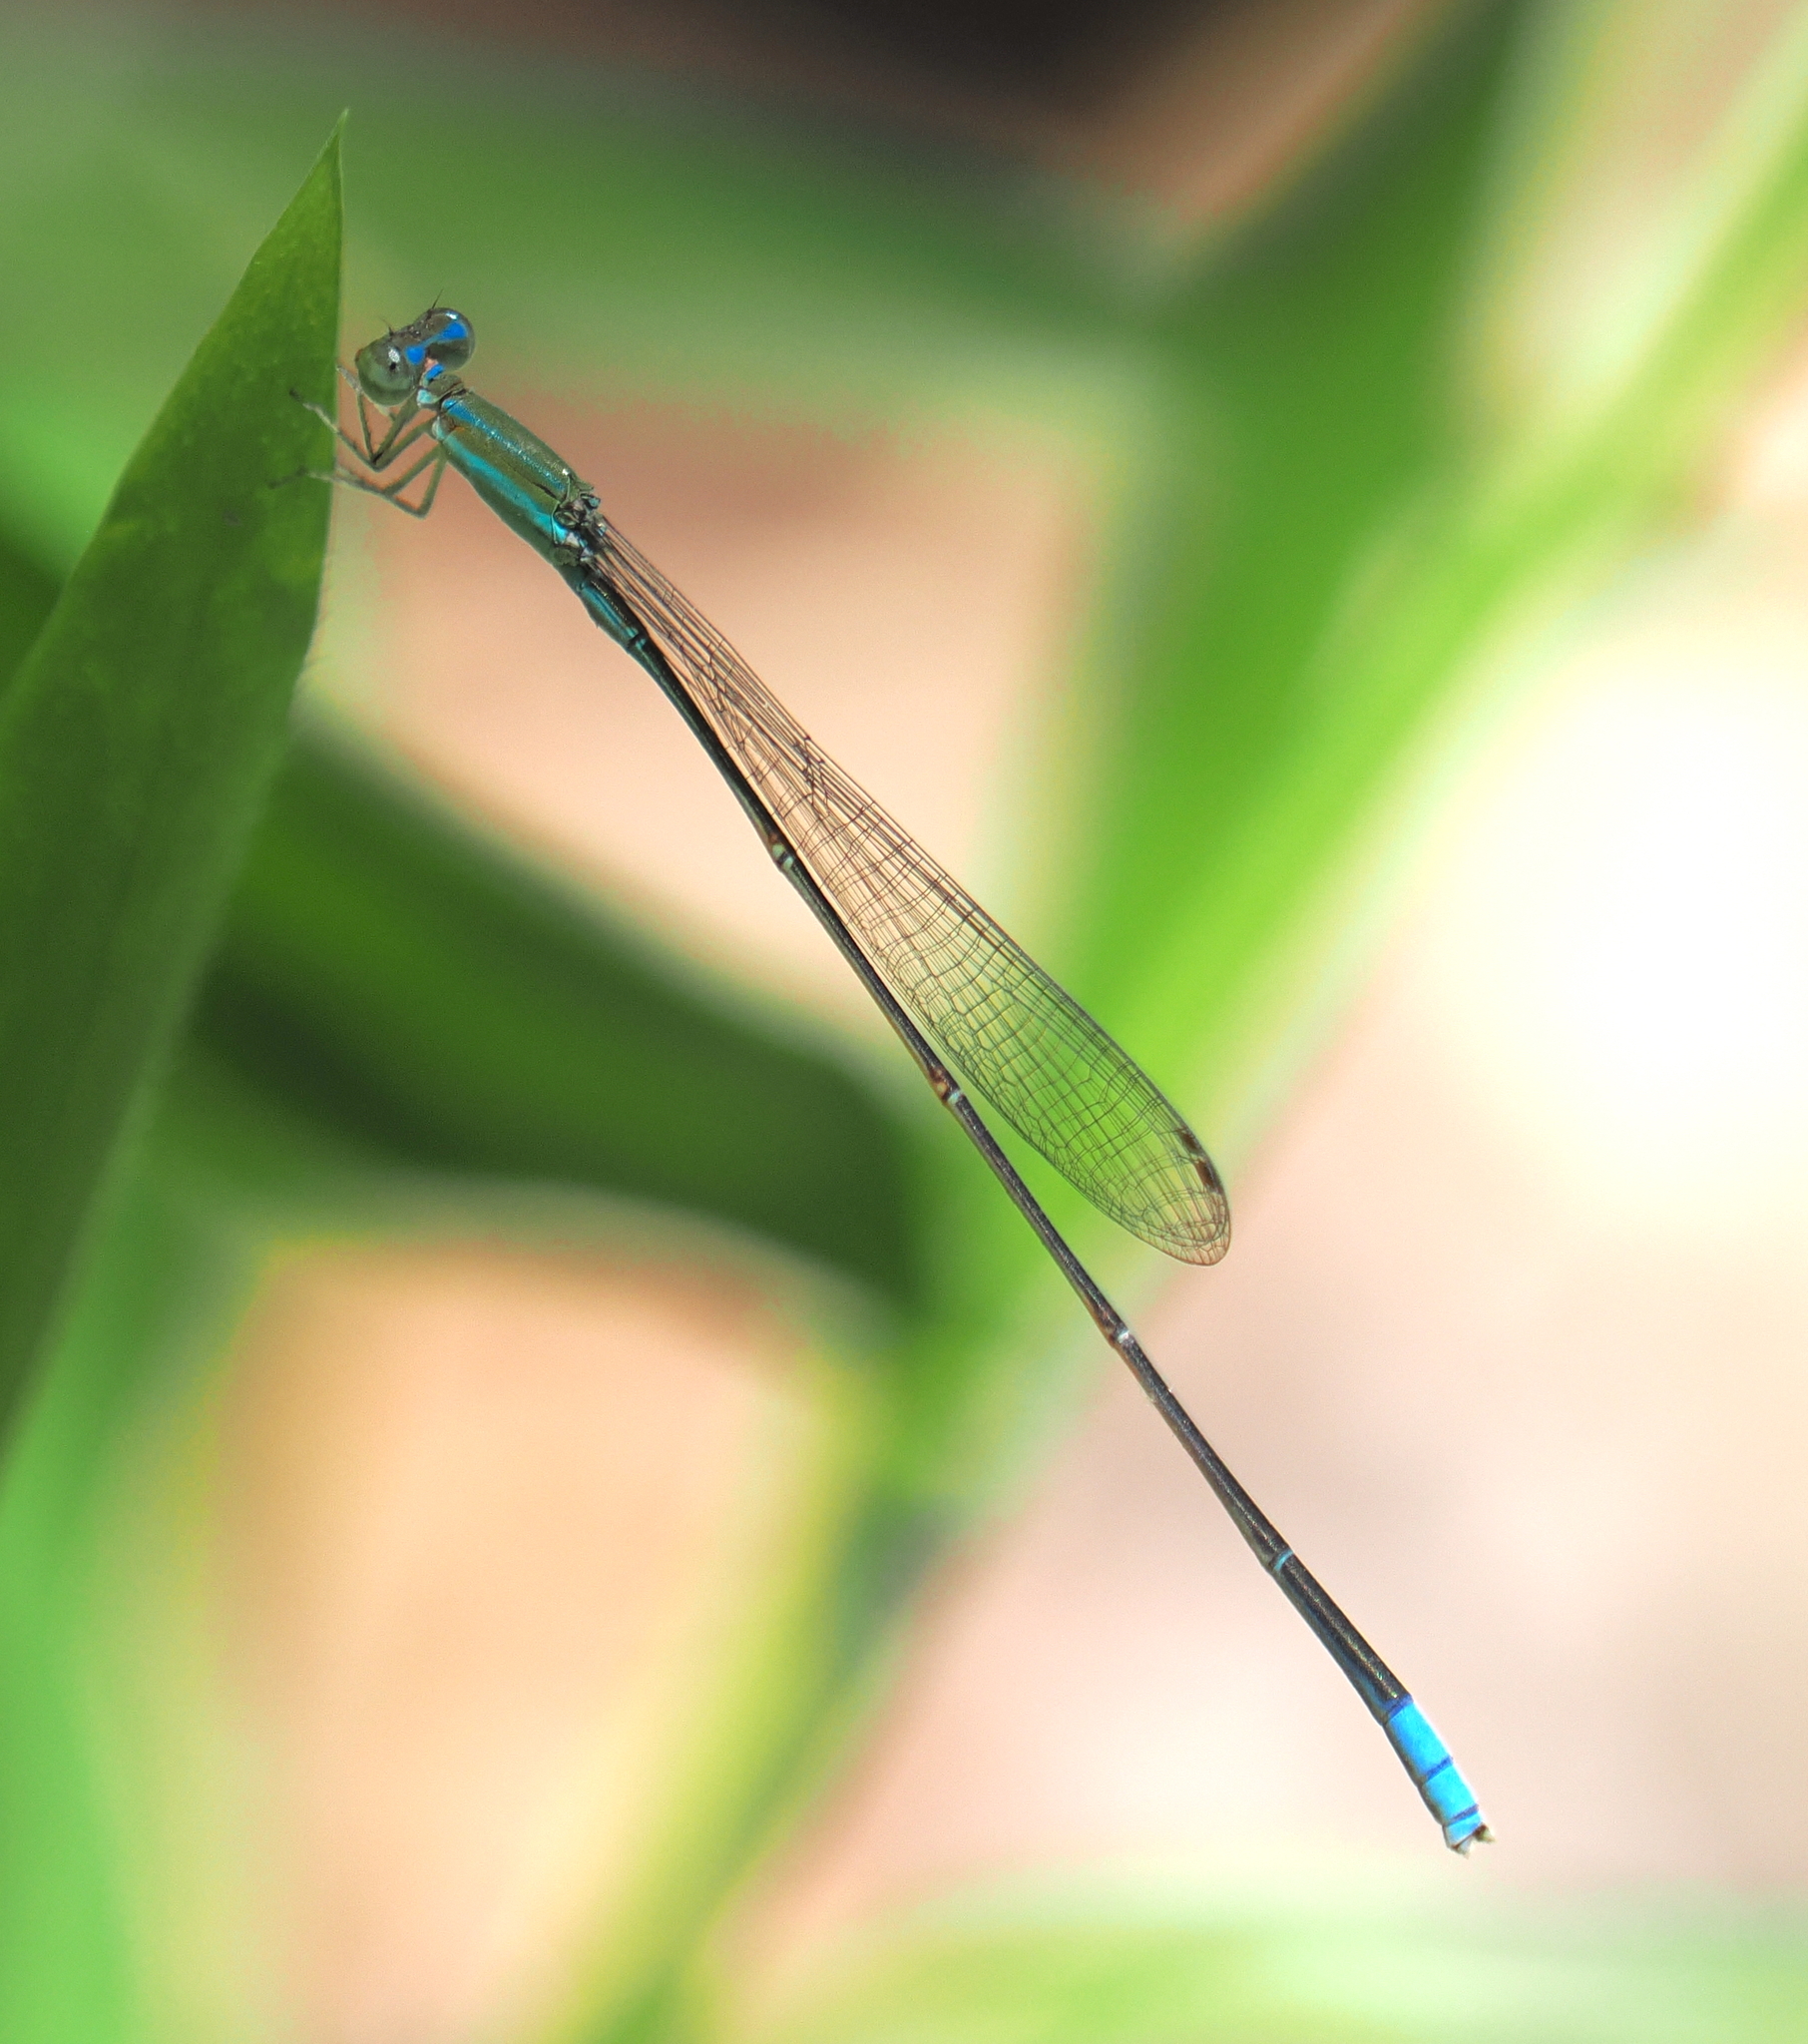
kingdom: Animalia
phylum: Arthropoda
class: Insecta
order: Odonata
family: Coenagrionidae
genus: Aciagrion
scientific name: Aciagrion pallidum
